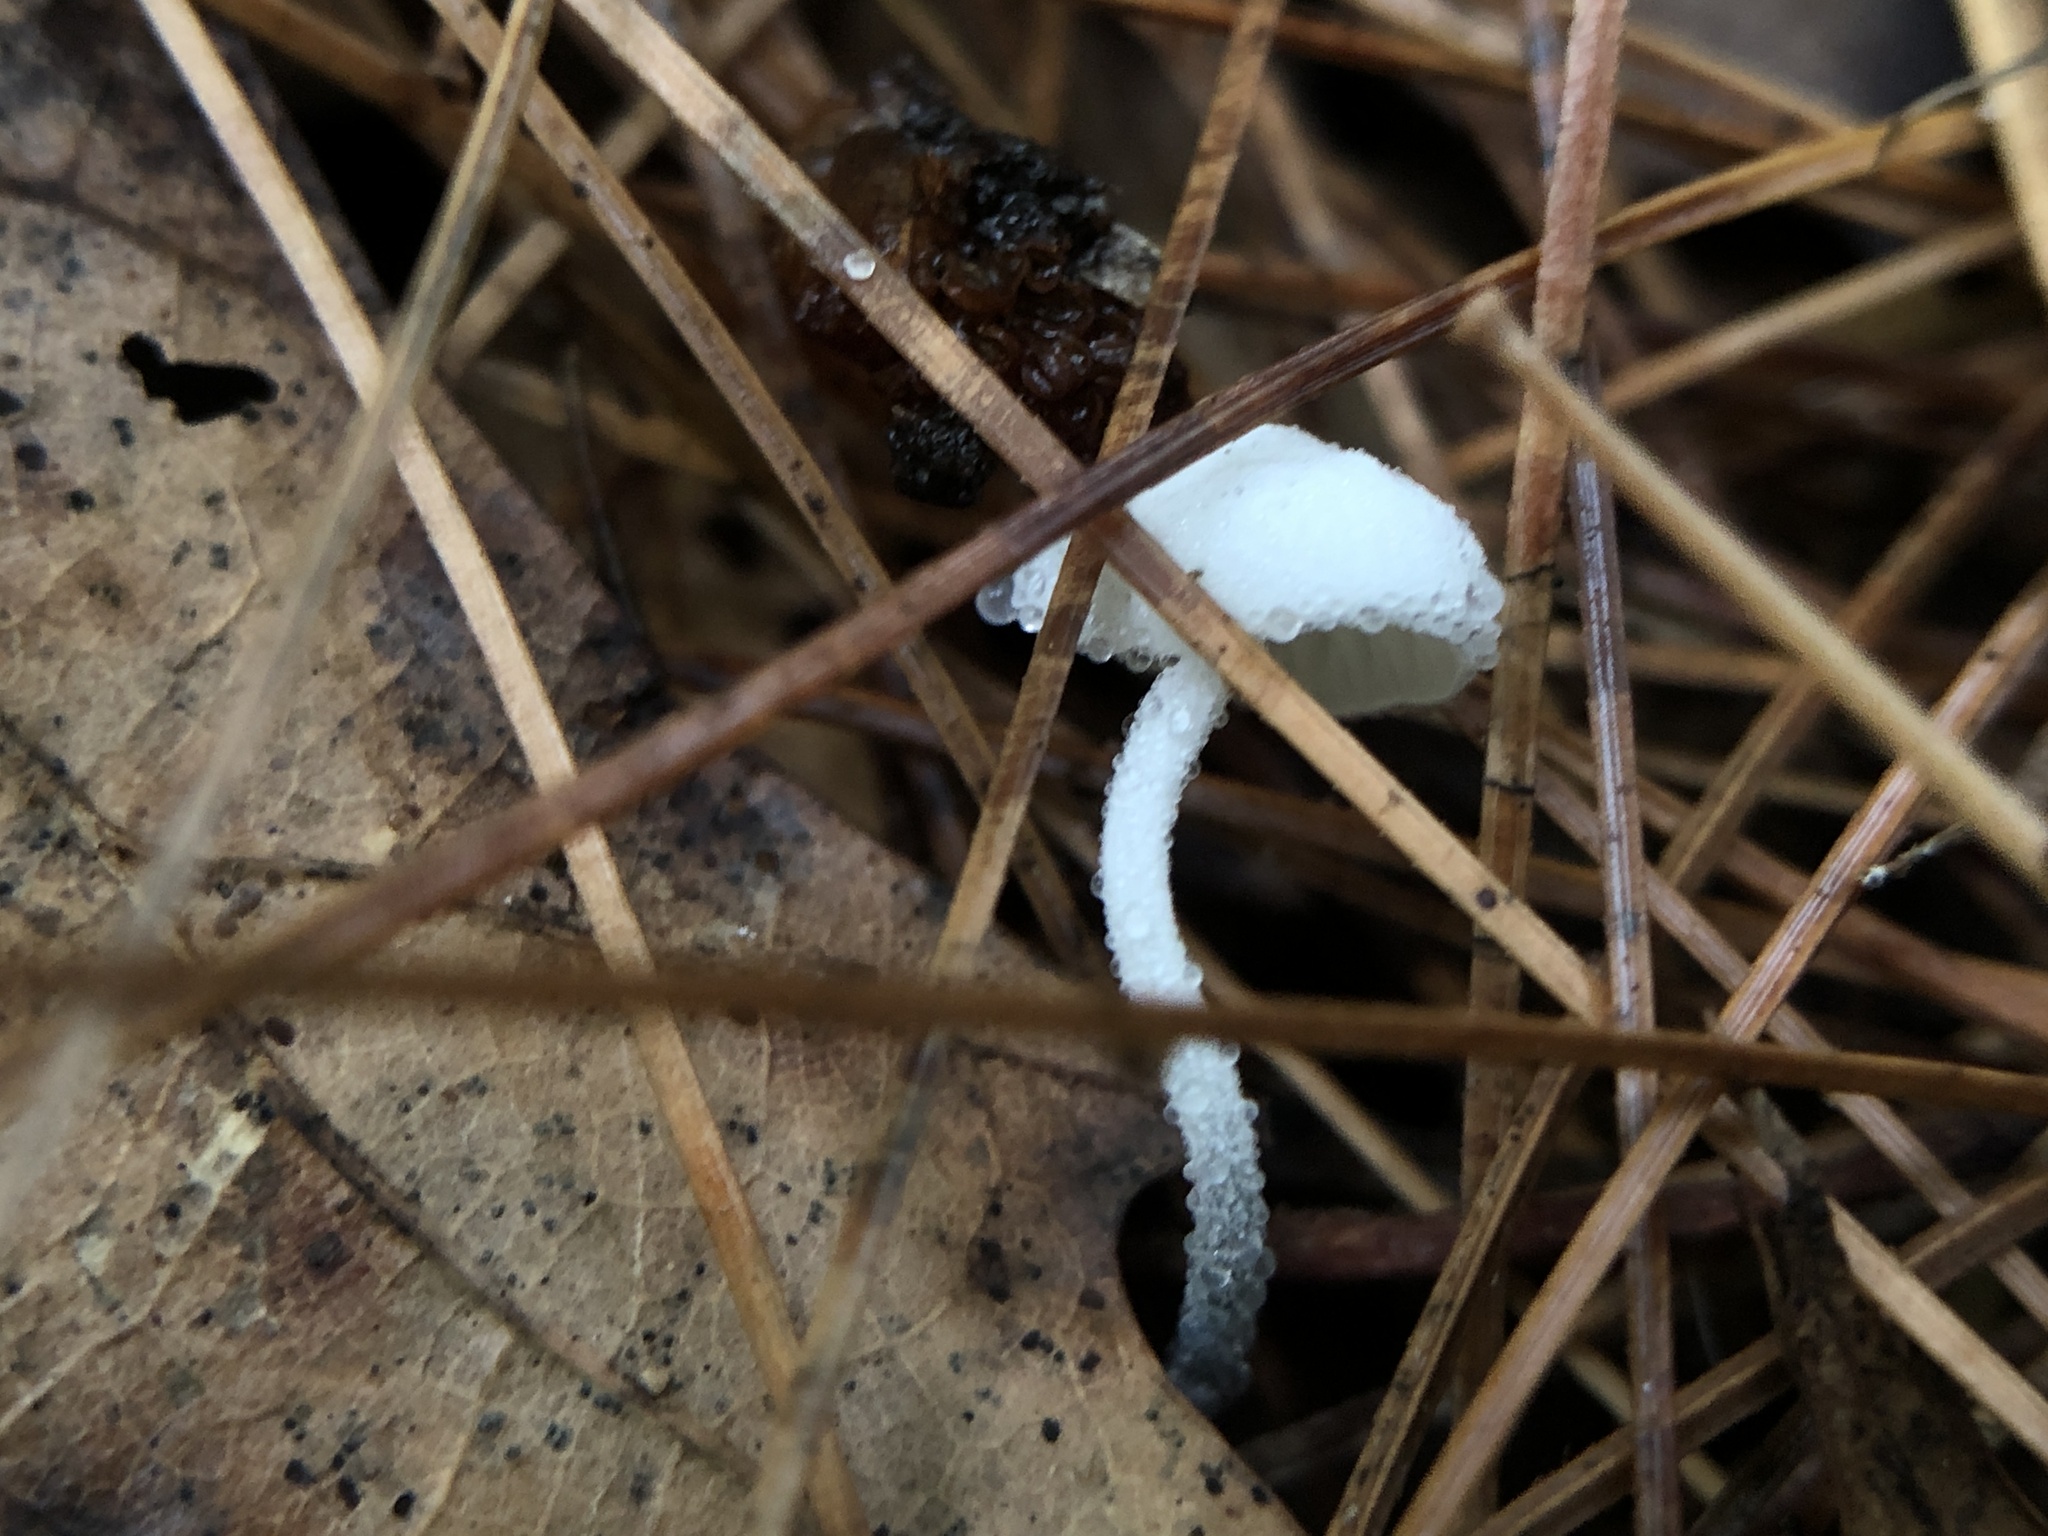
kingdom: Fungi
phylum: Basidiomycota
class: Agaricomycetes
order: Agaricales
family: Marasmiaceae
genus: Tetrapyrgos
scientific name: Tetrapyrgos nigripes
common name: Black-stalked marasmius
